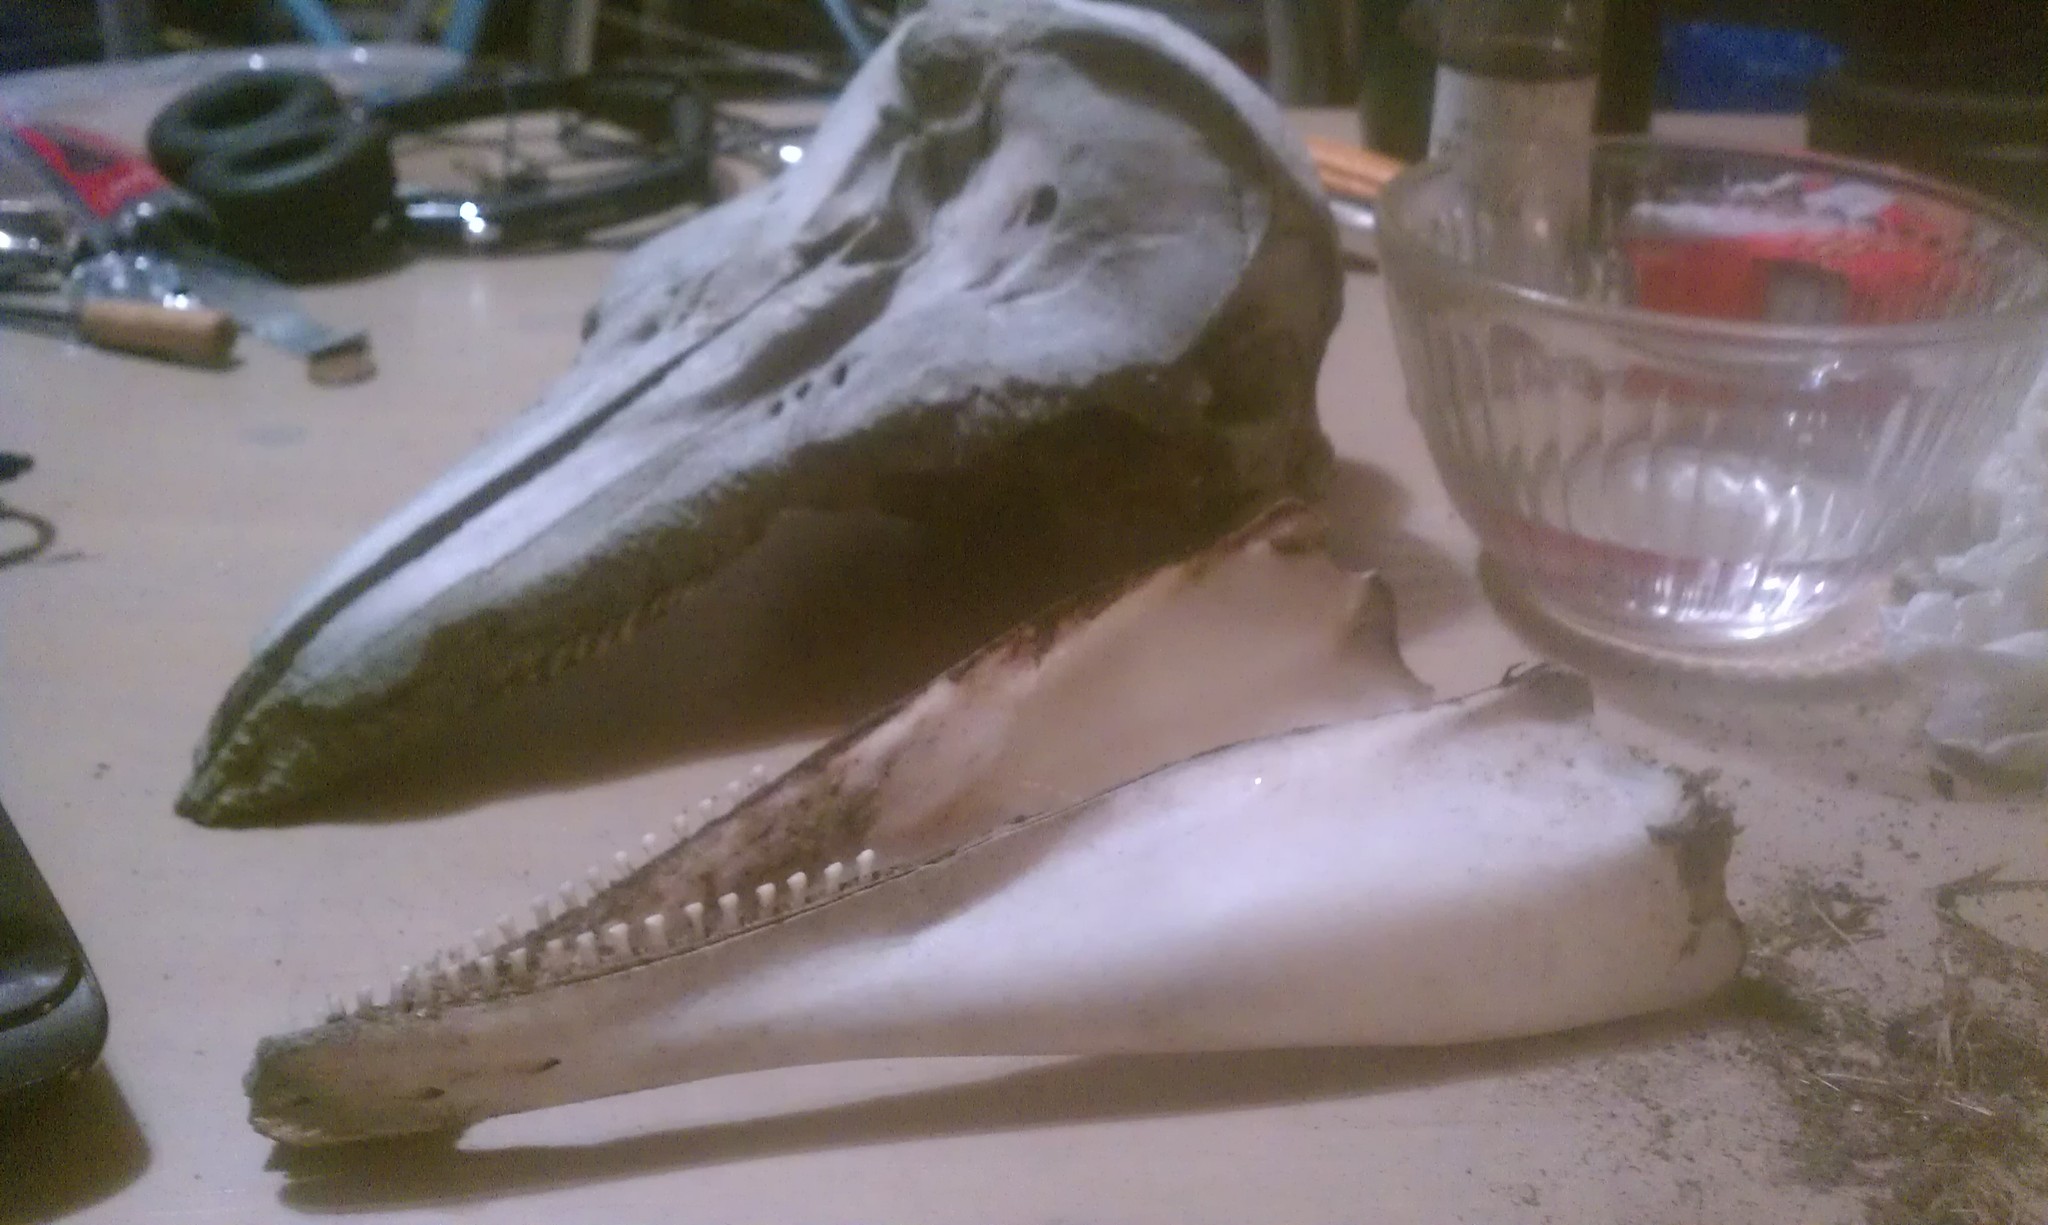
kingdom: Animalia
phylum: Chordata
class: Mammalia
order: Cetacea
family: Phocoenidae
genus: Phocoena
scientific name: Phocoena phocoena
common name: Harbor porpoise
